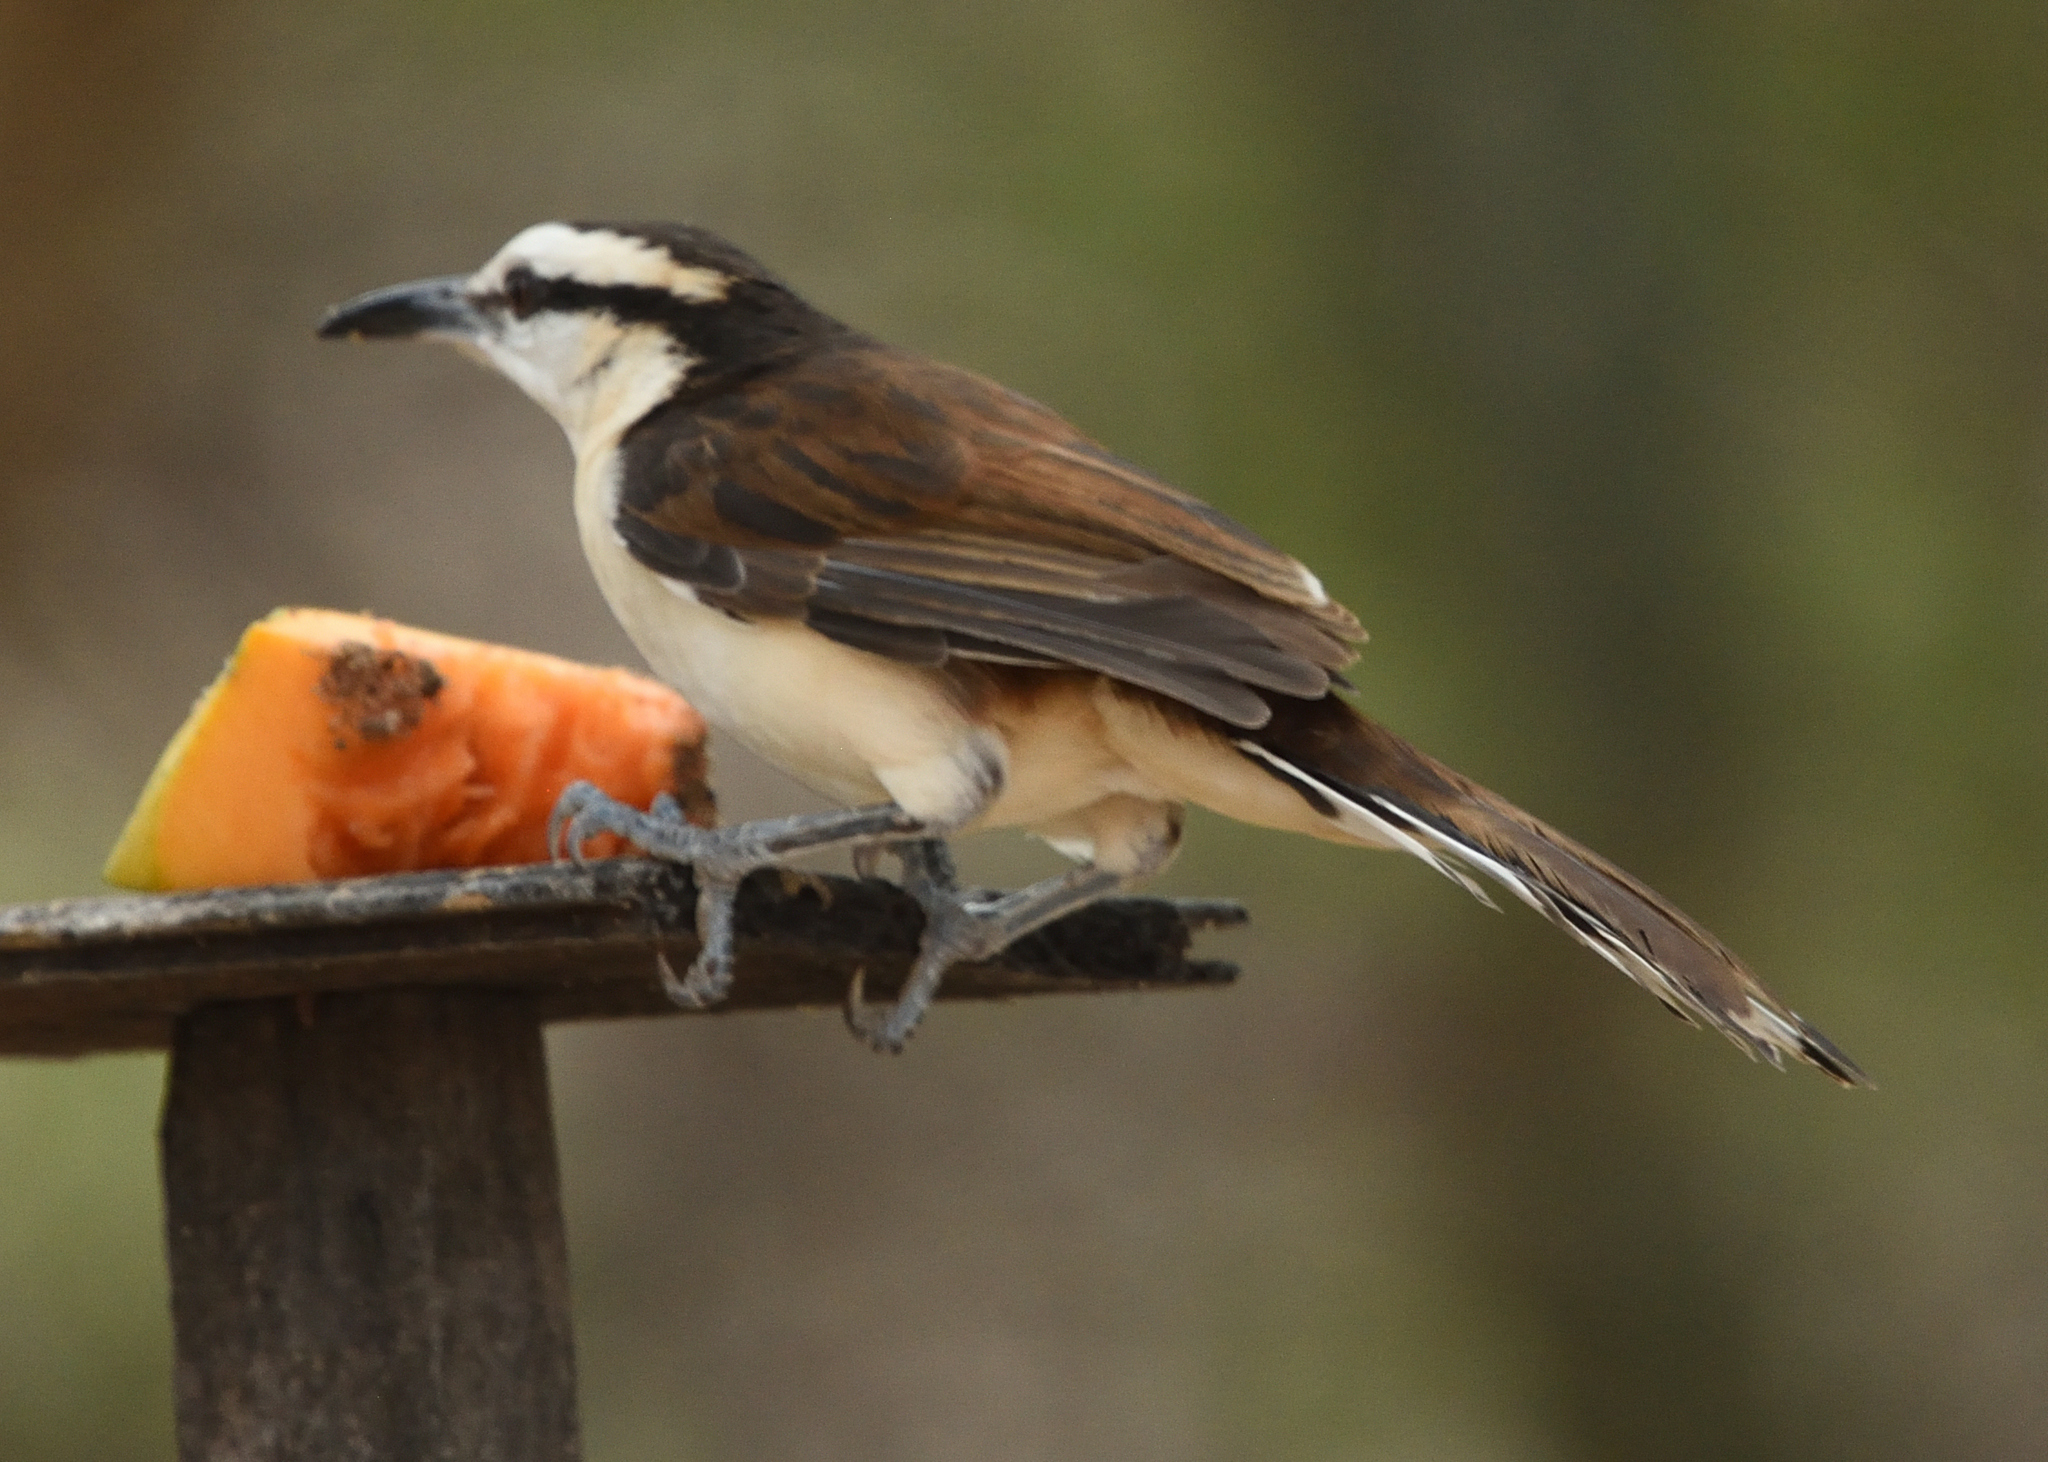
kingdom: Animalia
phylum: Chordata
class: Aves
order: Passeriformes
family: Troglodytidae
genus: Campylorhynchus
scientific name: Campylorhynchus griseus
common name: Bicolored wren
